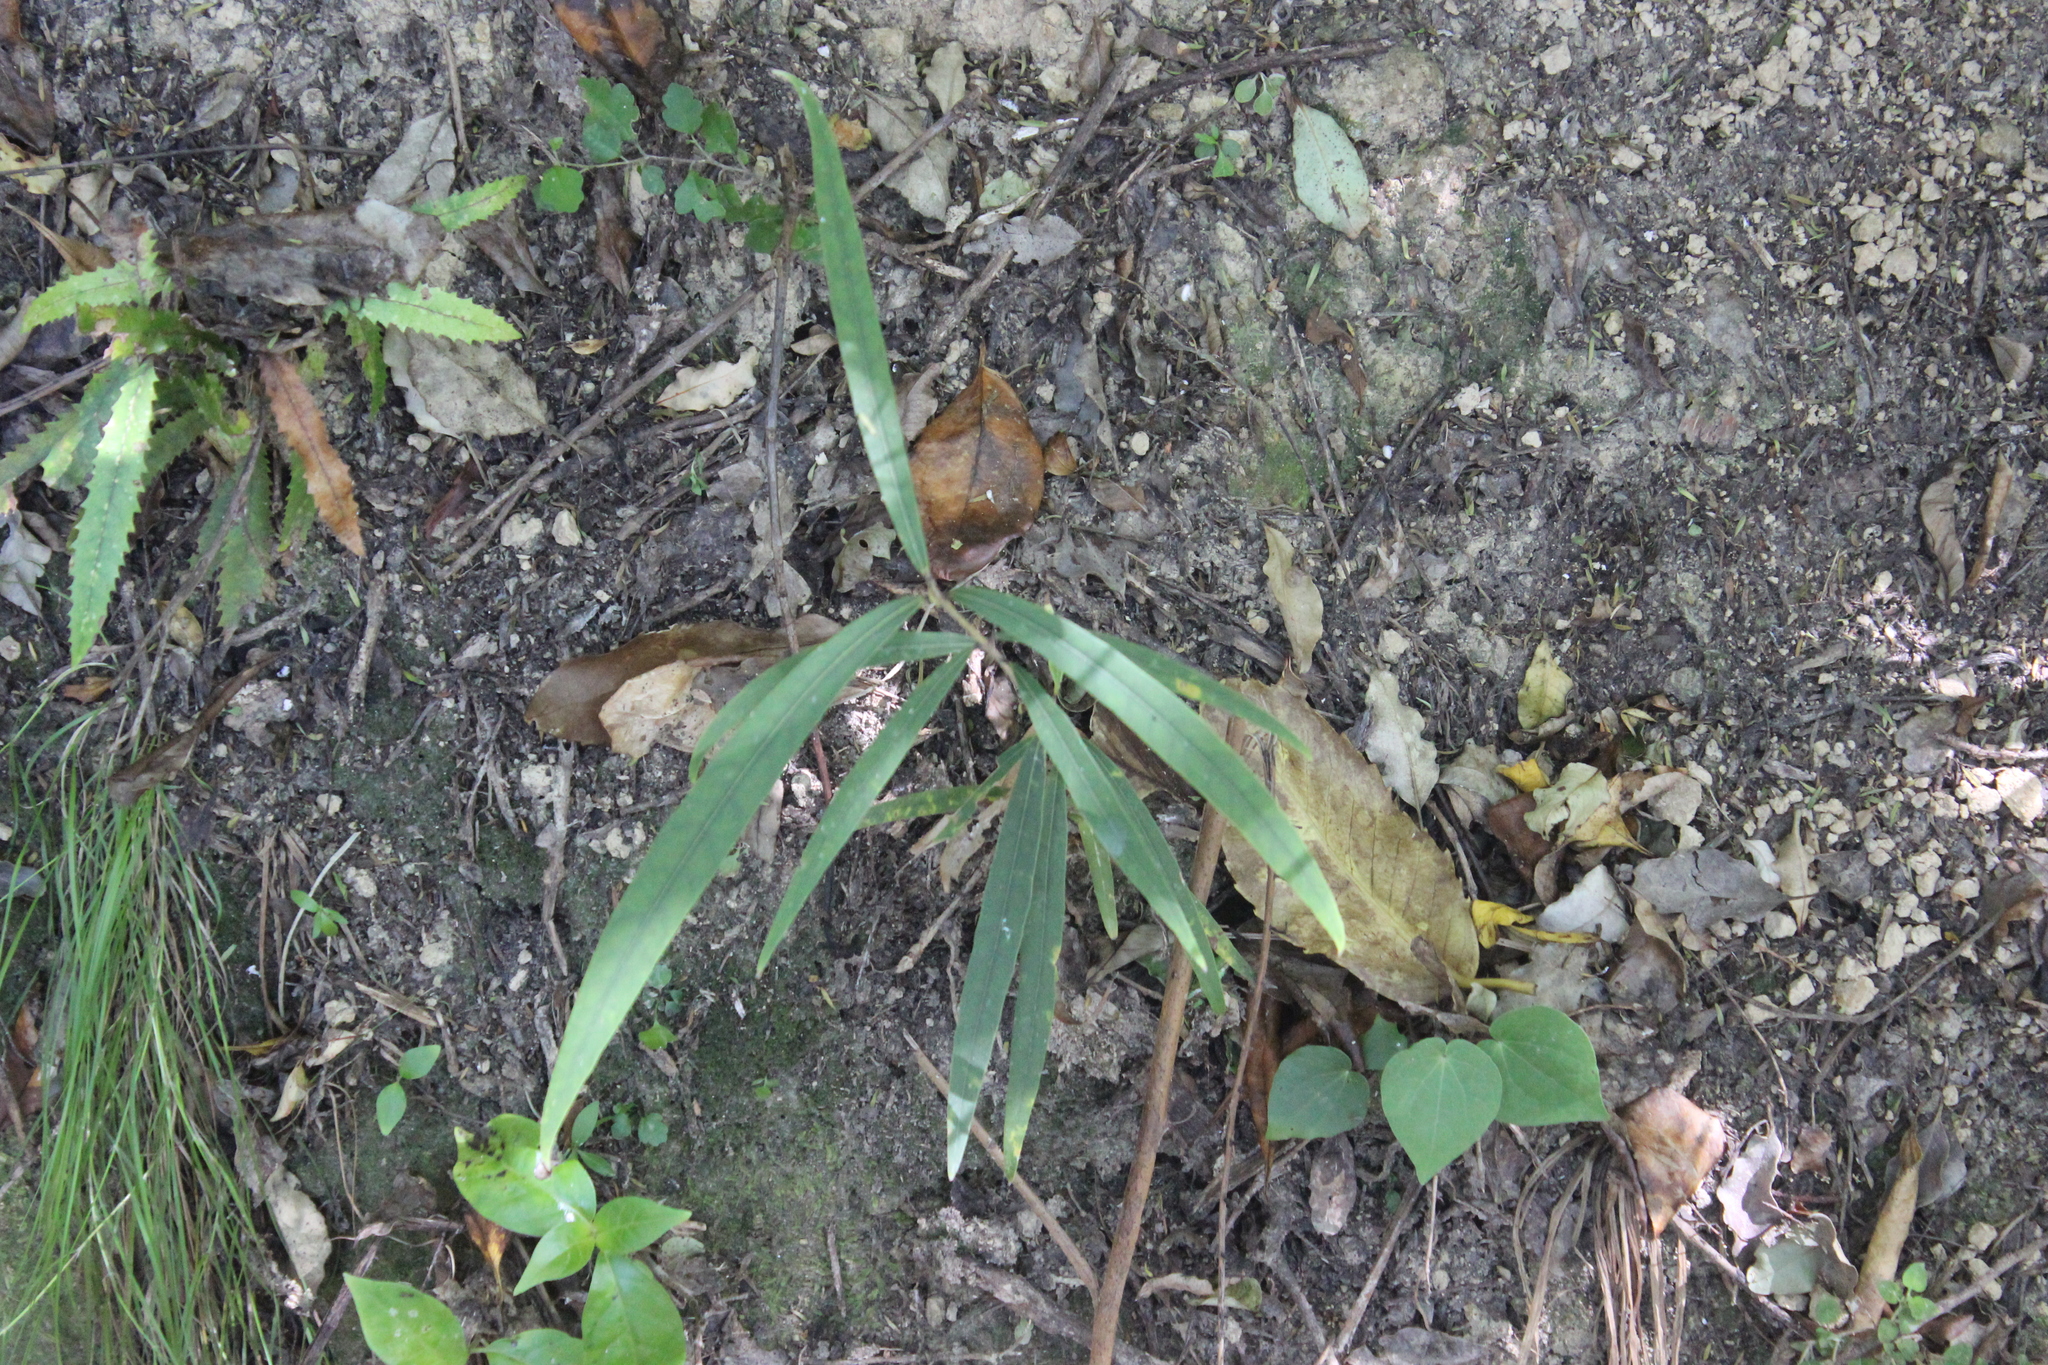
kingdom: Plantae
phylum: Tracheophyta
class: Magnoliopsida
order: Lamiales
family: Oleaceae
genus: Nestegis
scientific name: Nestegis cunninghamii
